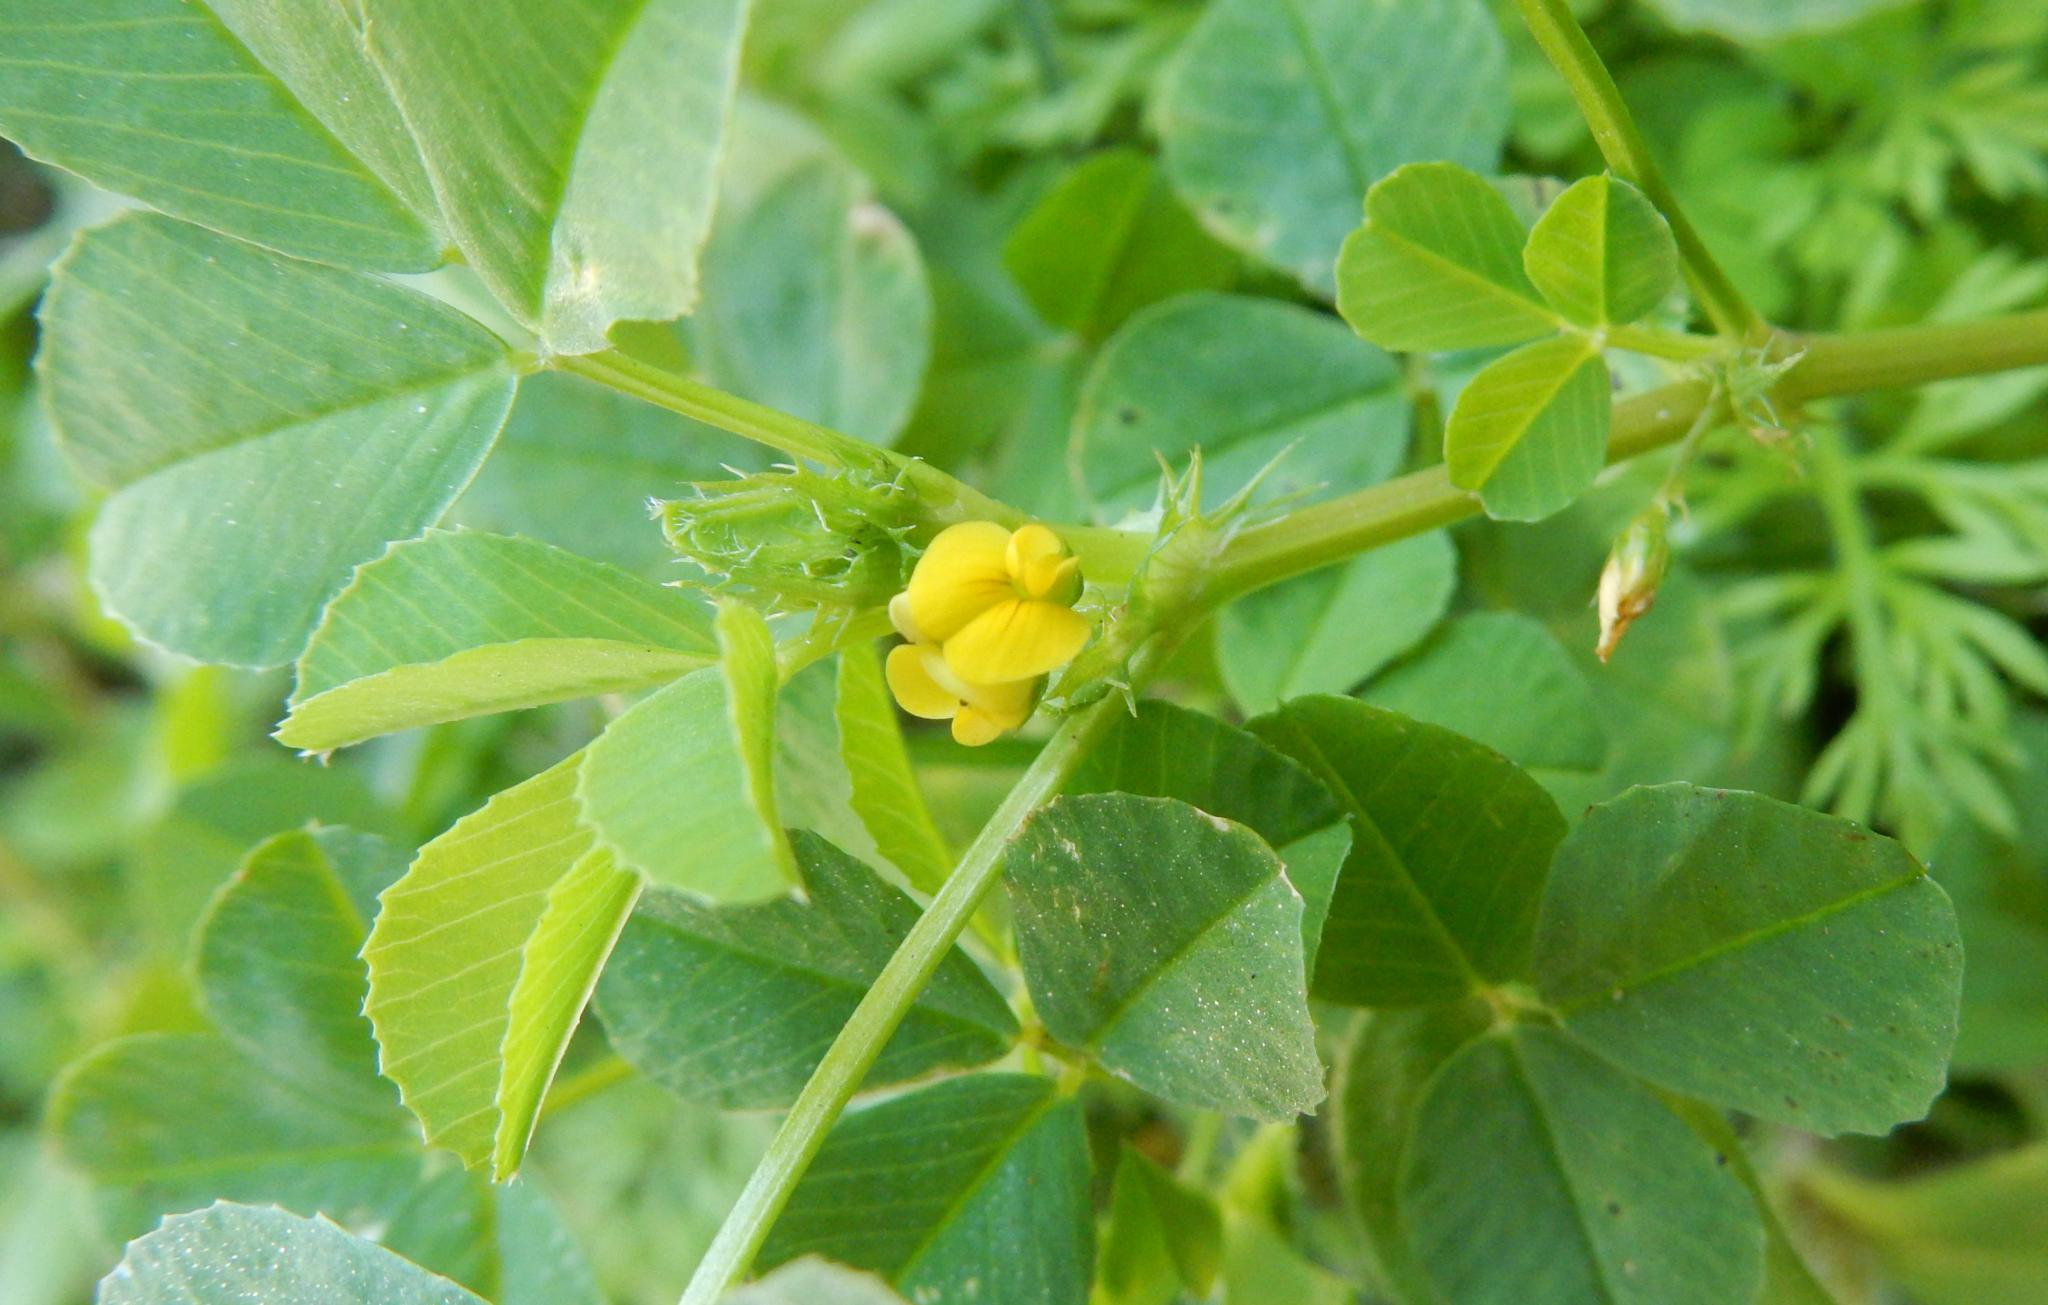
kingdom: Plantae
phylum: Tracheophyta
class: Magnoliopsida
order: Fabales
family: Fabaceae
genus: Medicago
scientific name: Medicago polymorpha
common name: Burclover
